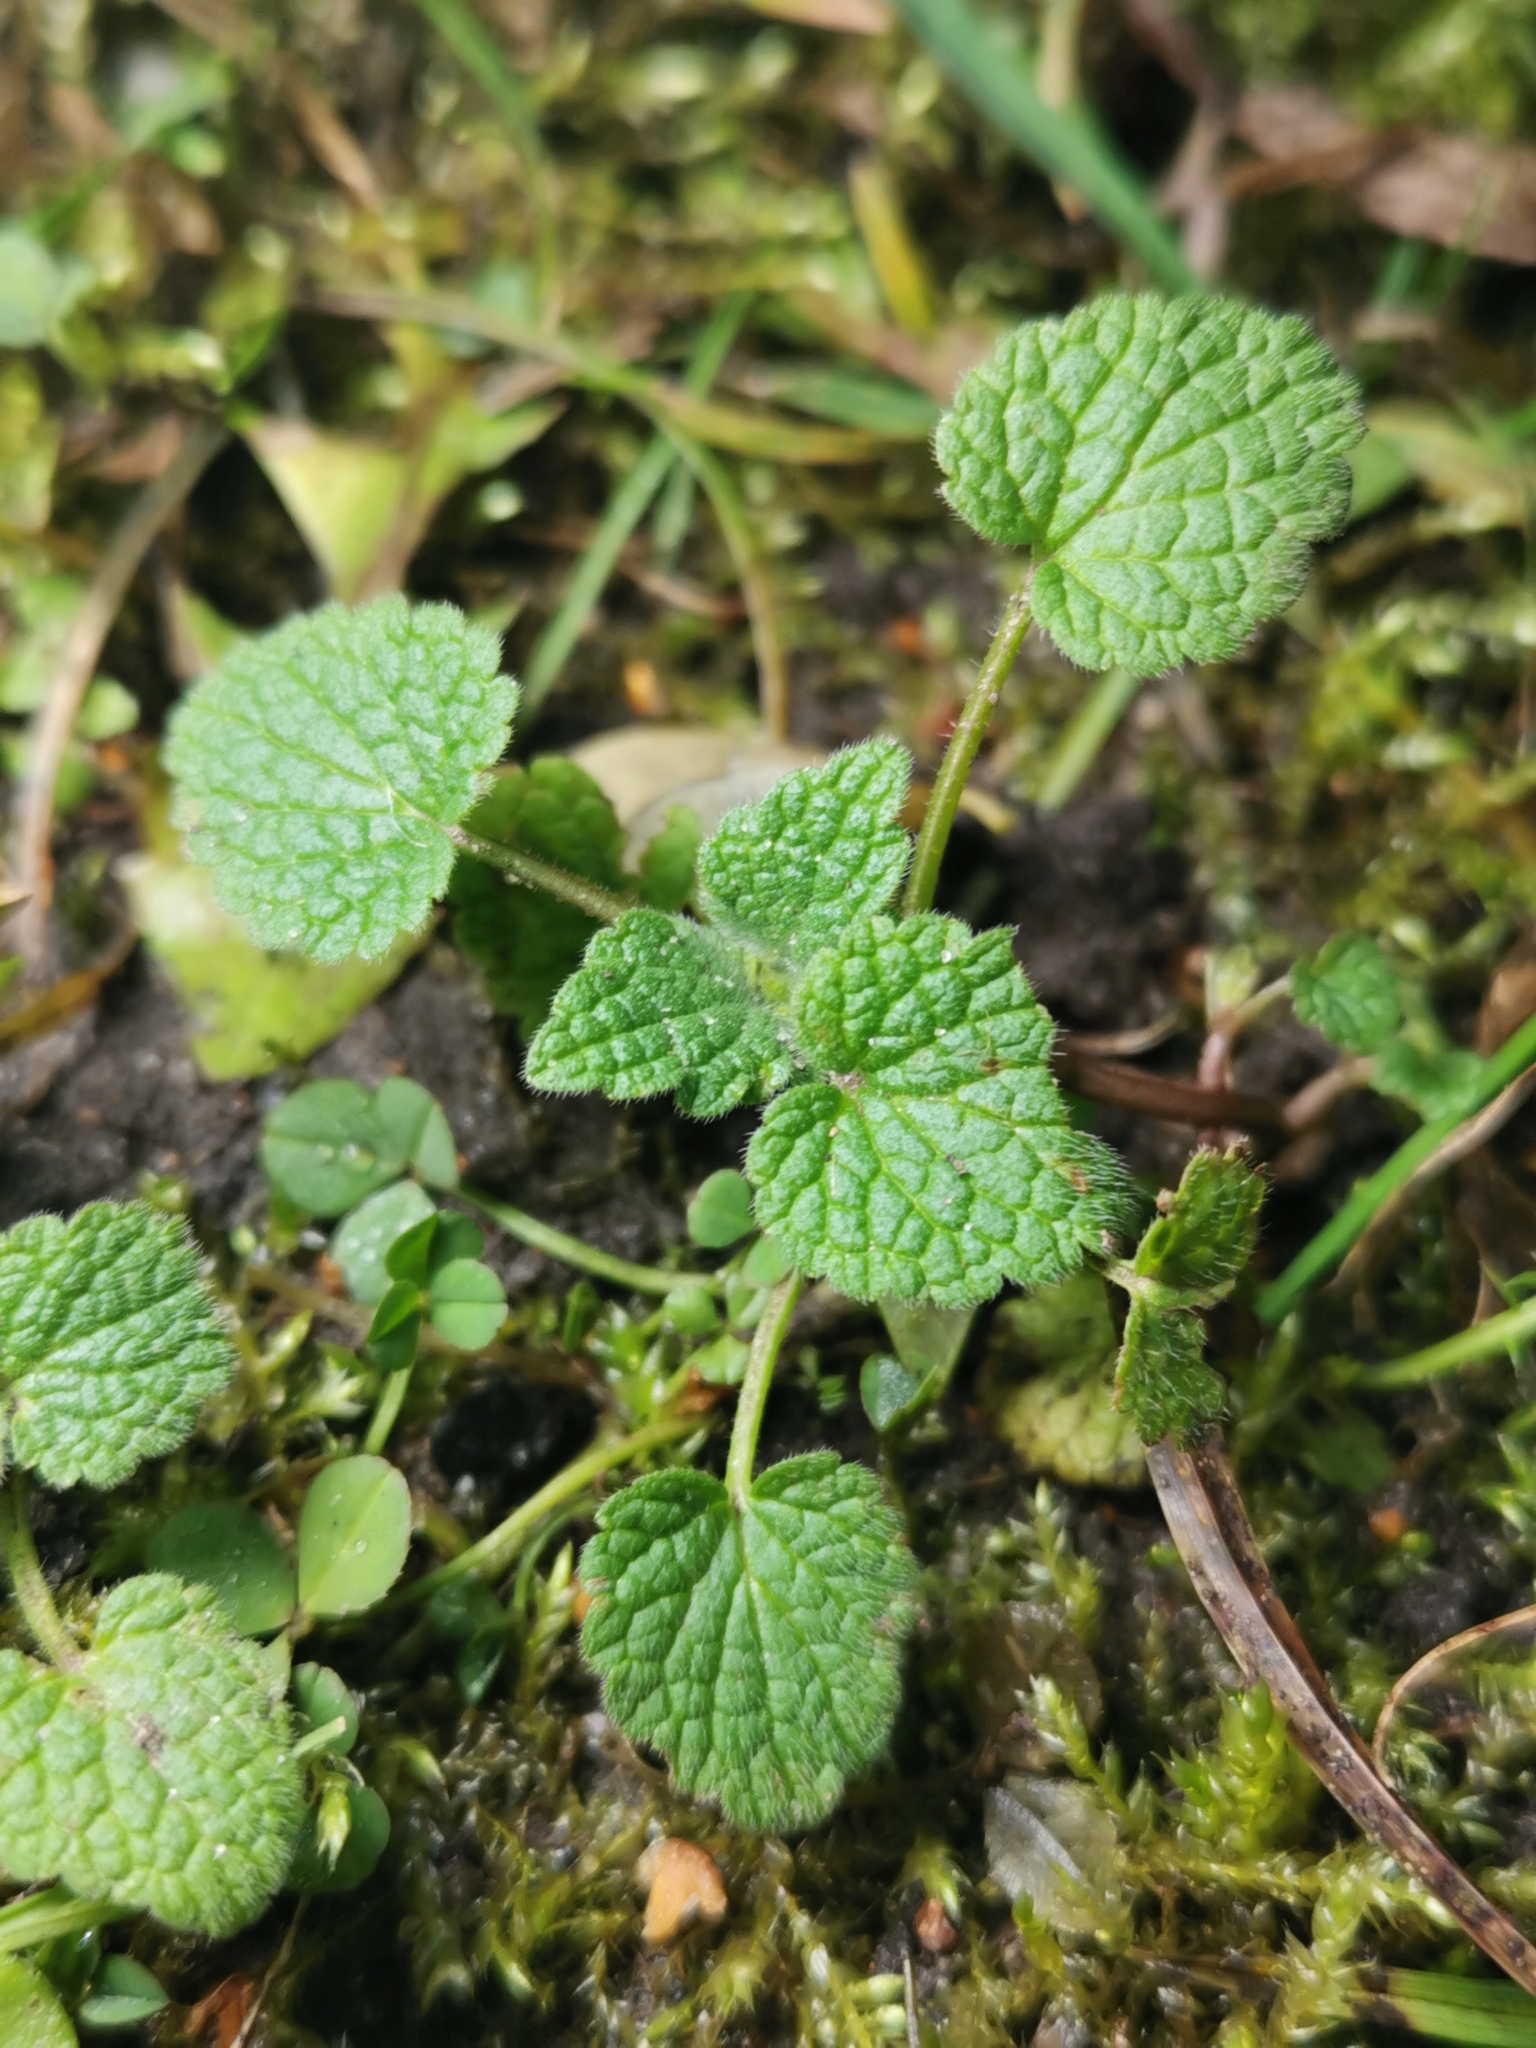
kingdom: Plantae
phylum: Tracheophyta
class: Magnoliopsida
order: Lamiales
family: Lamiaceae
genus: Lamium
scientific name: Lamium purpureum
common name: Red dead-nettle
